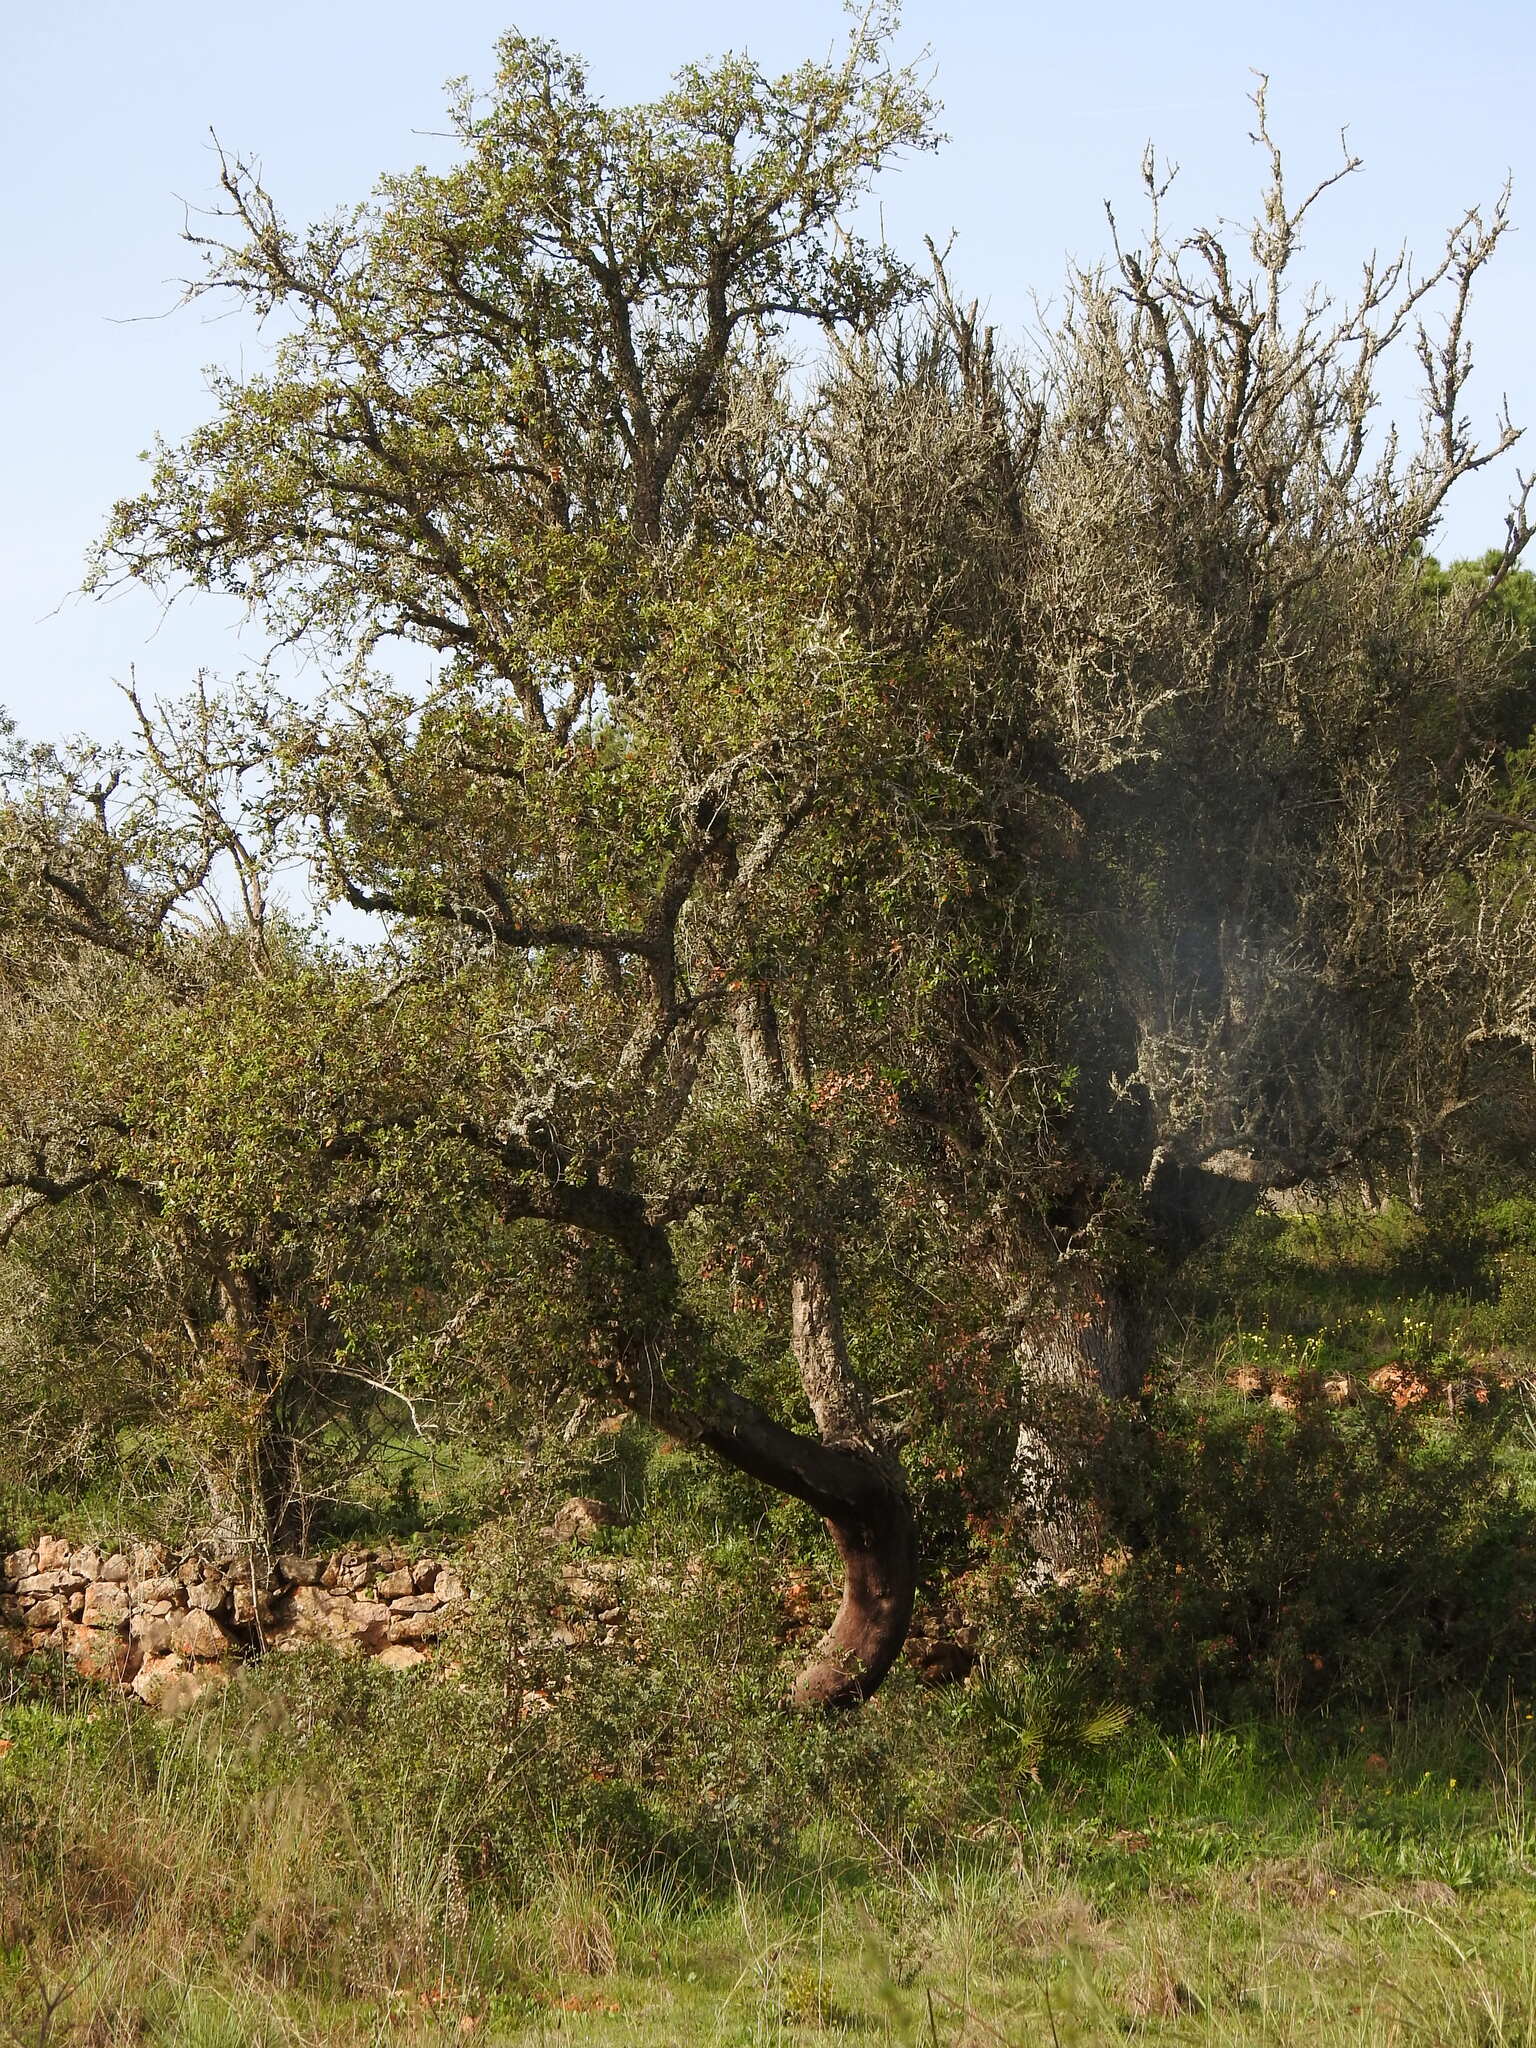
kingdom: Plantae
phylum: Tracheophyta
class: Magnoliopsida
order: Fagales
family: Fagaceae
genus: Quercus
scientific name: Quercus suber
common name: Cork oak
